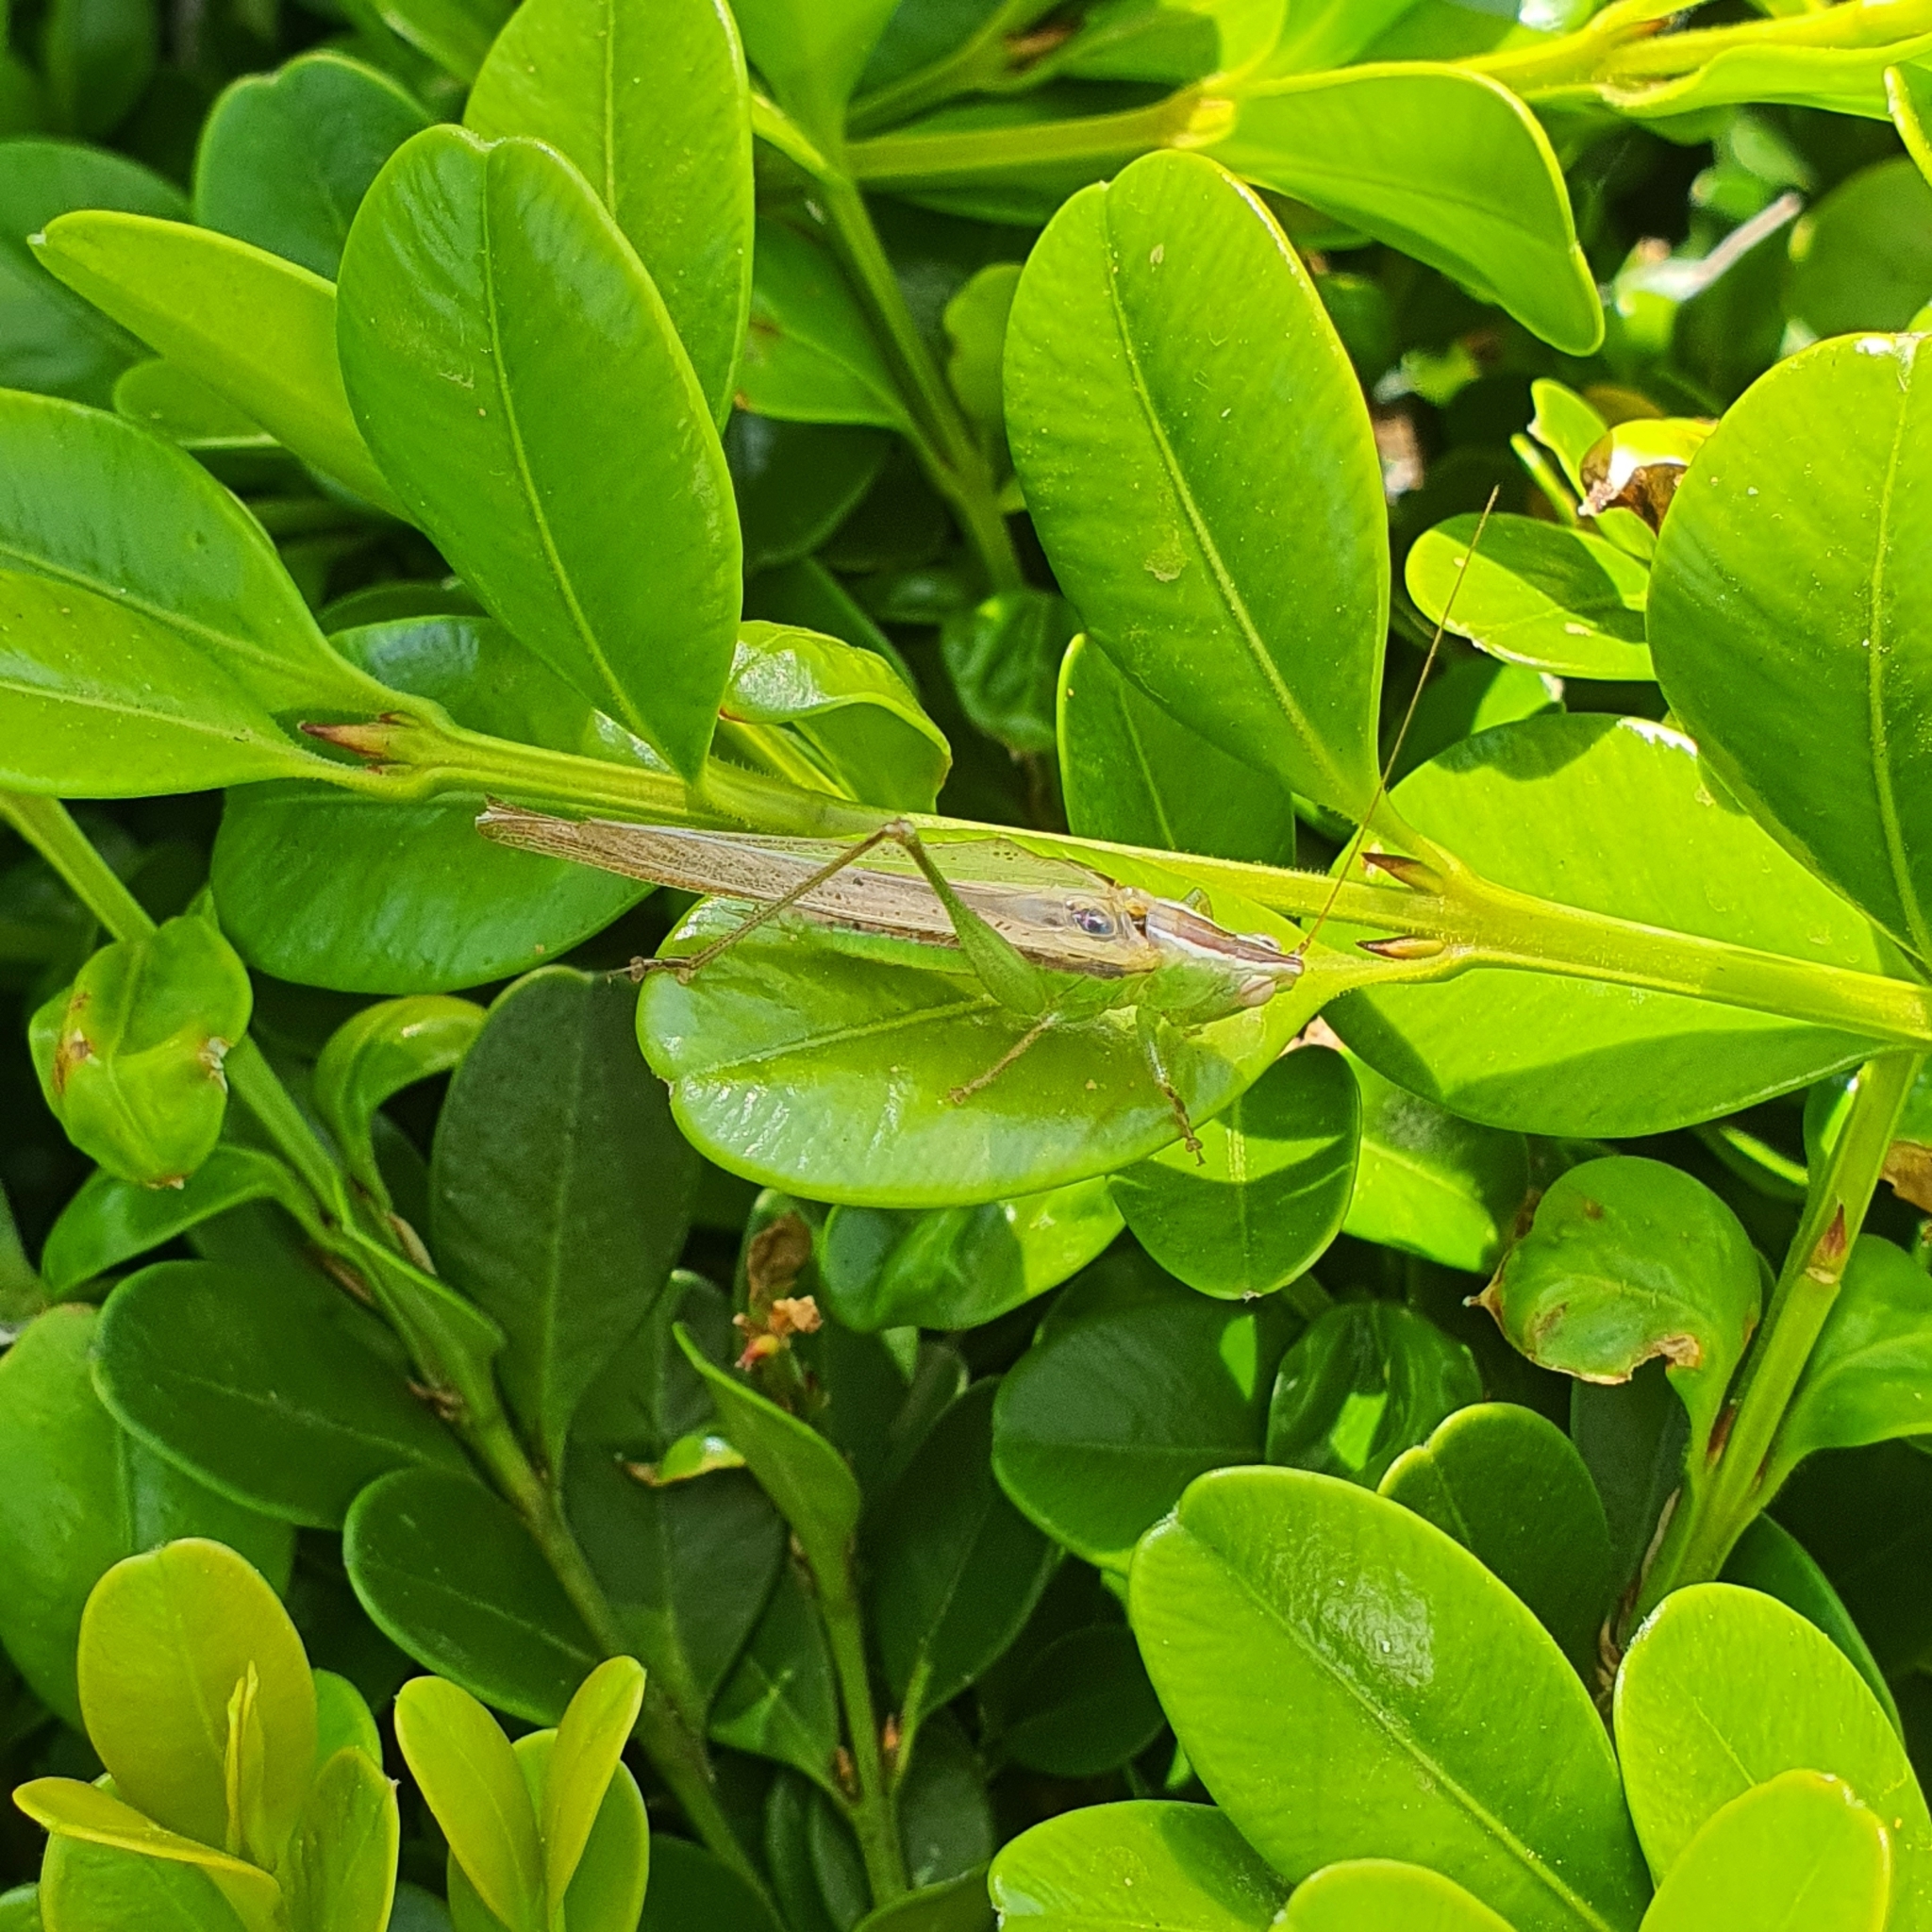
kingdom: Animalia
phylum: Arthropoda
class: Insecta
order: Orthoptera
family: Tettigoniidae
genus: Conocephalus
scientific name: Conocephalus upoluensis
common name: Upolu meadow katydid
